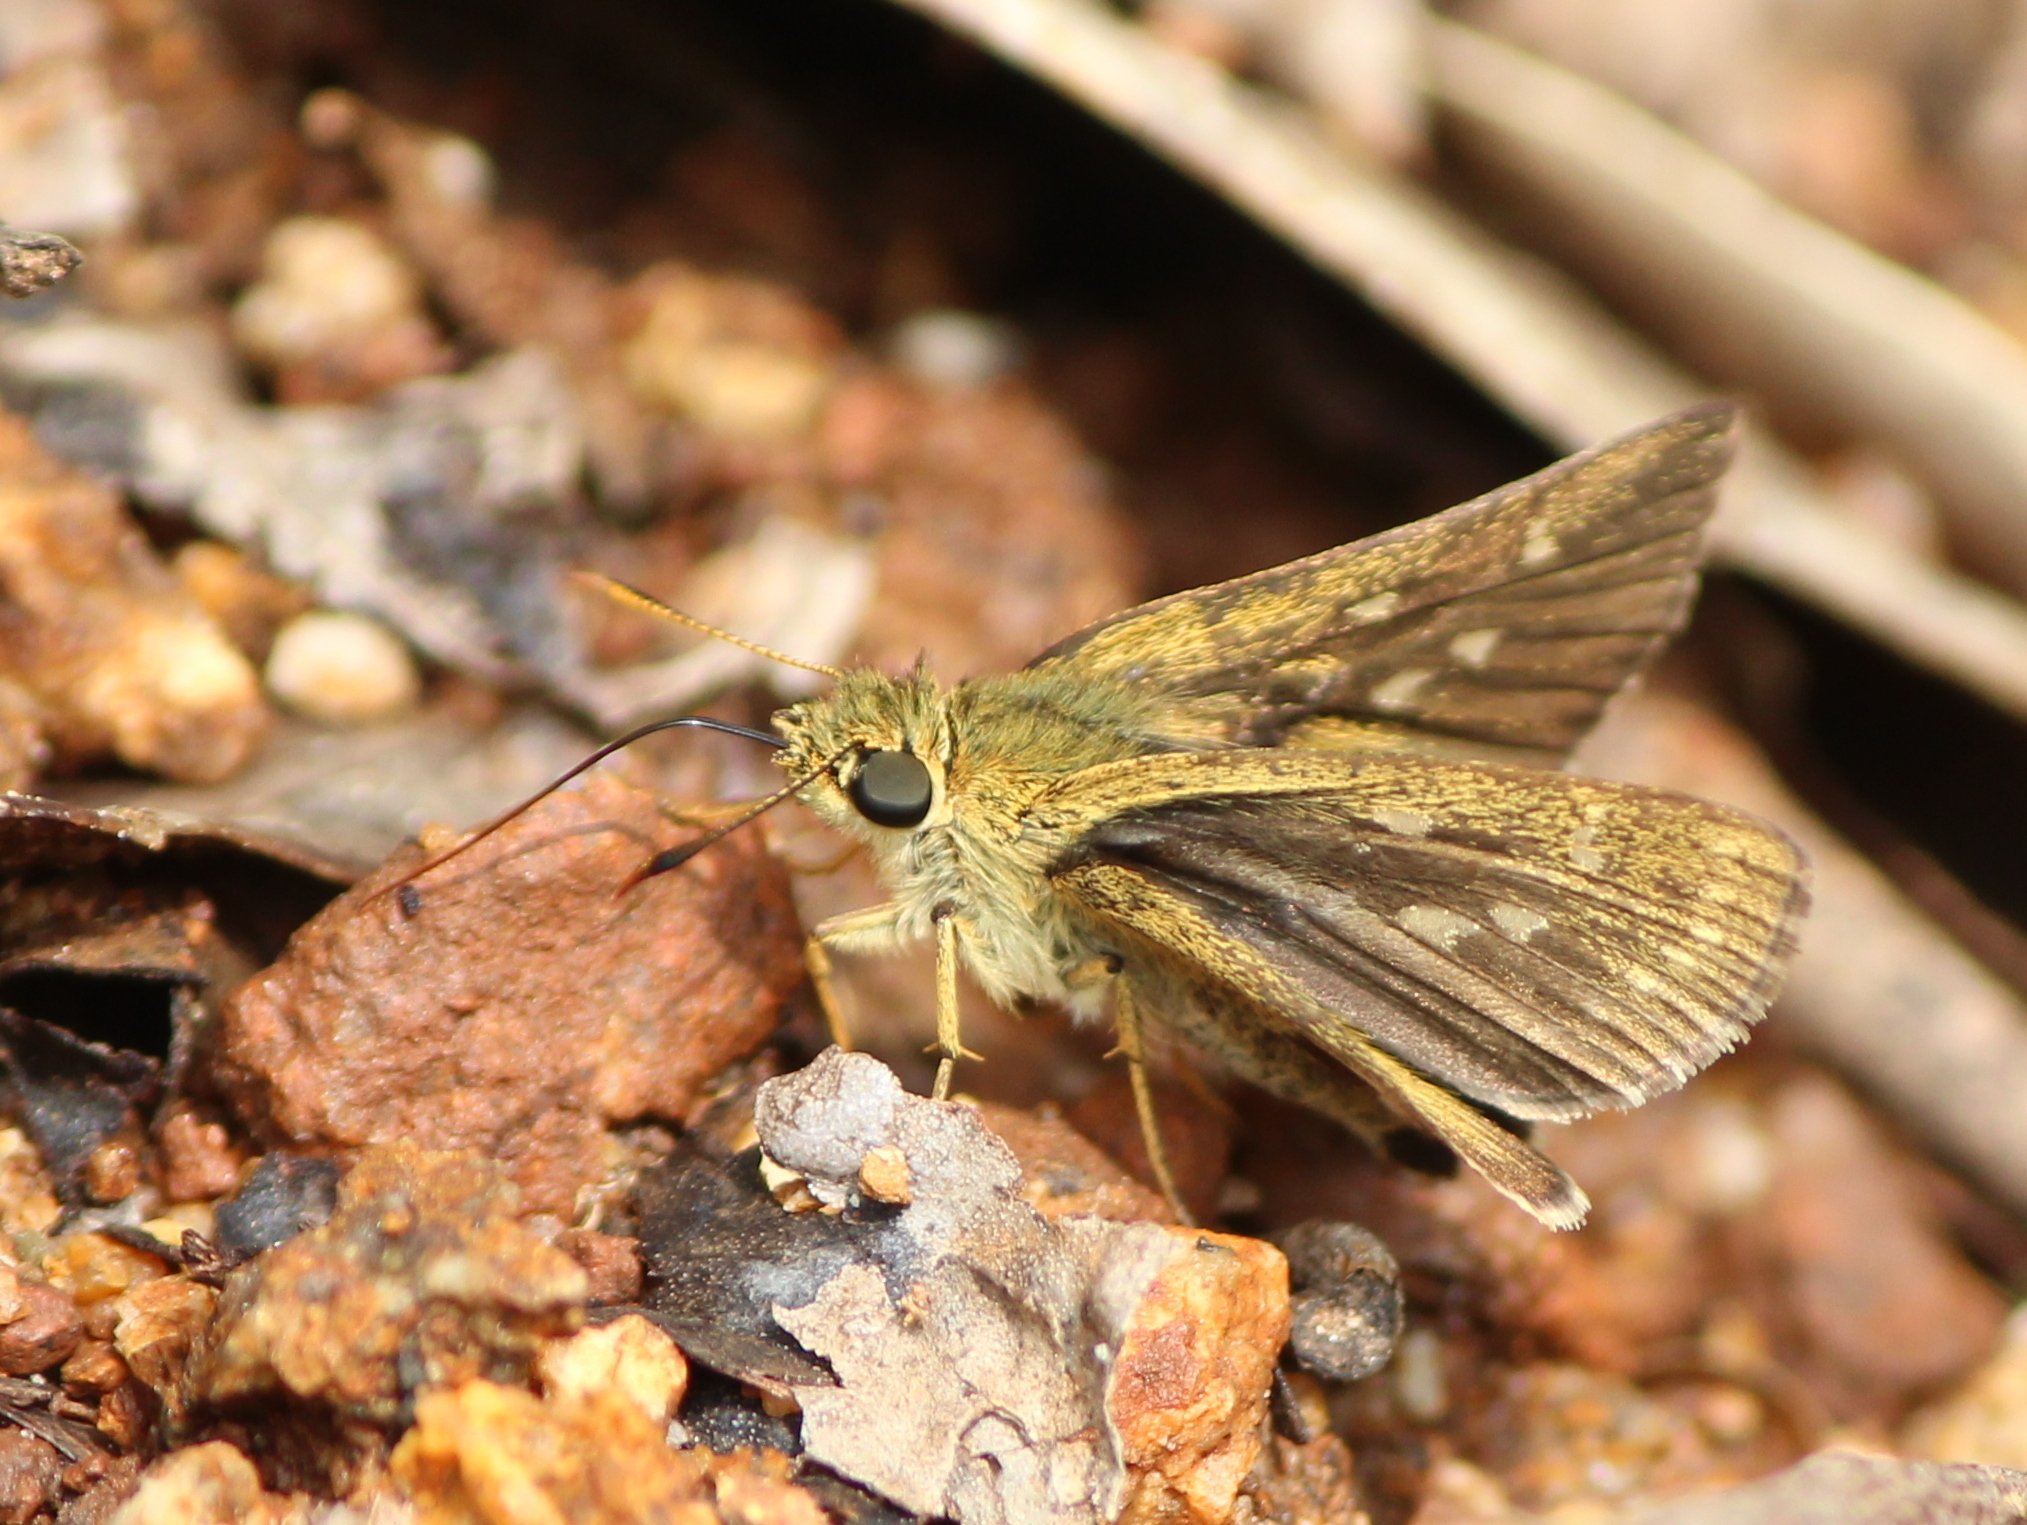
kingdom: Animalia
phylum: Arthropoda
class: Insecta
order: Lepidoptera
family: Hesperiidae
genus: Halpe
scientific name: Halpe homolea
